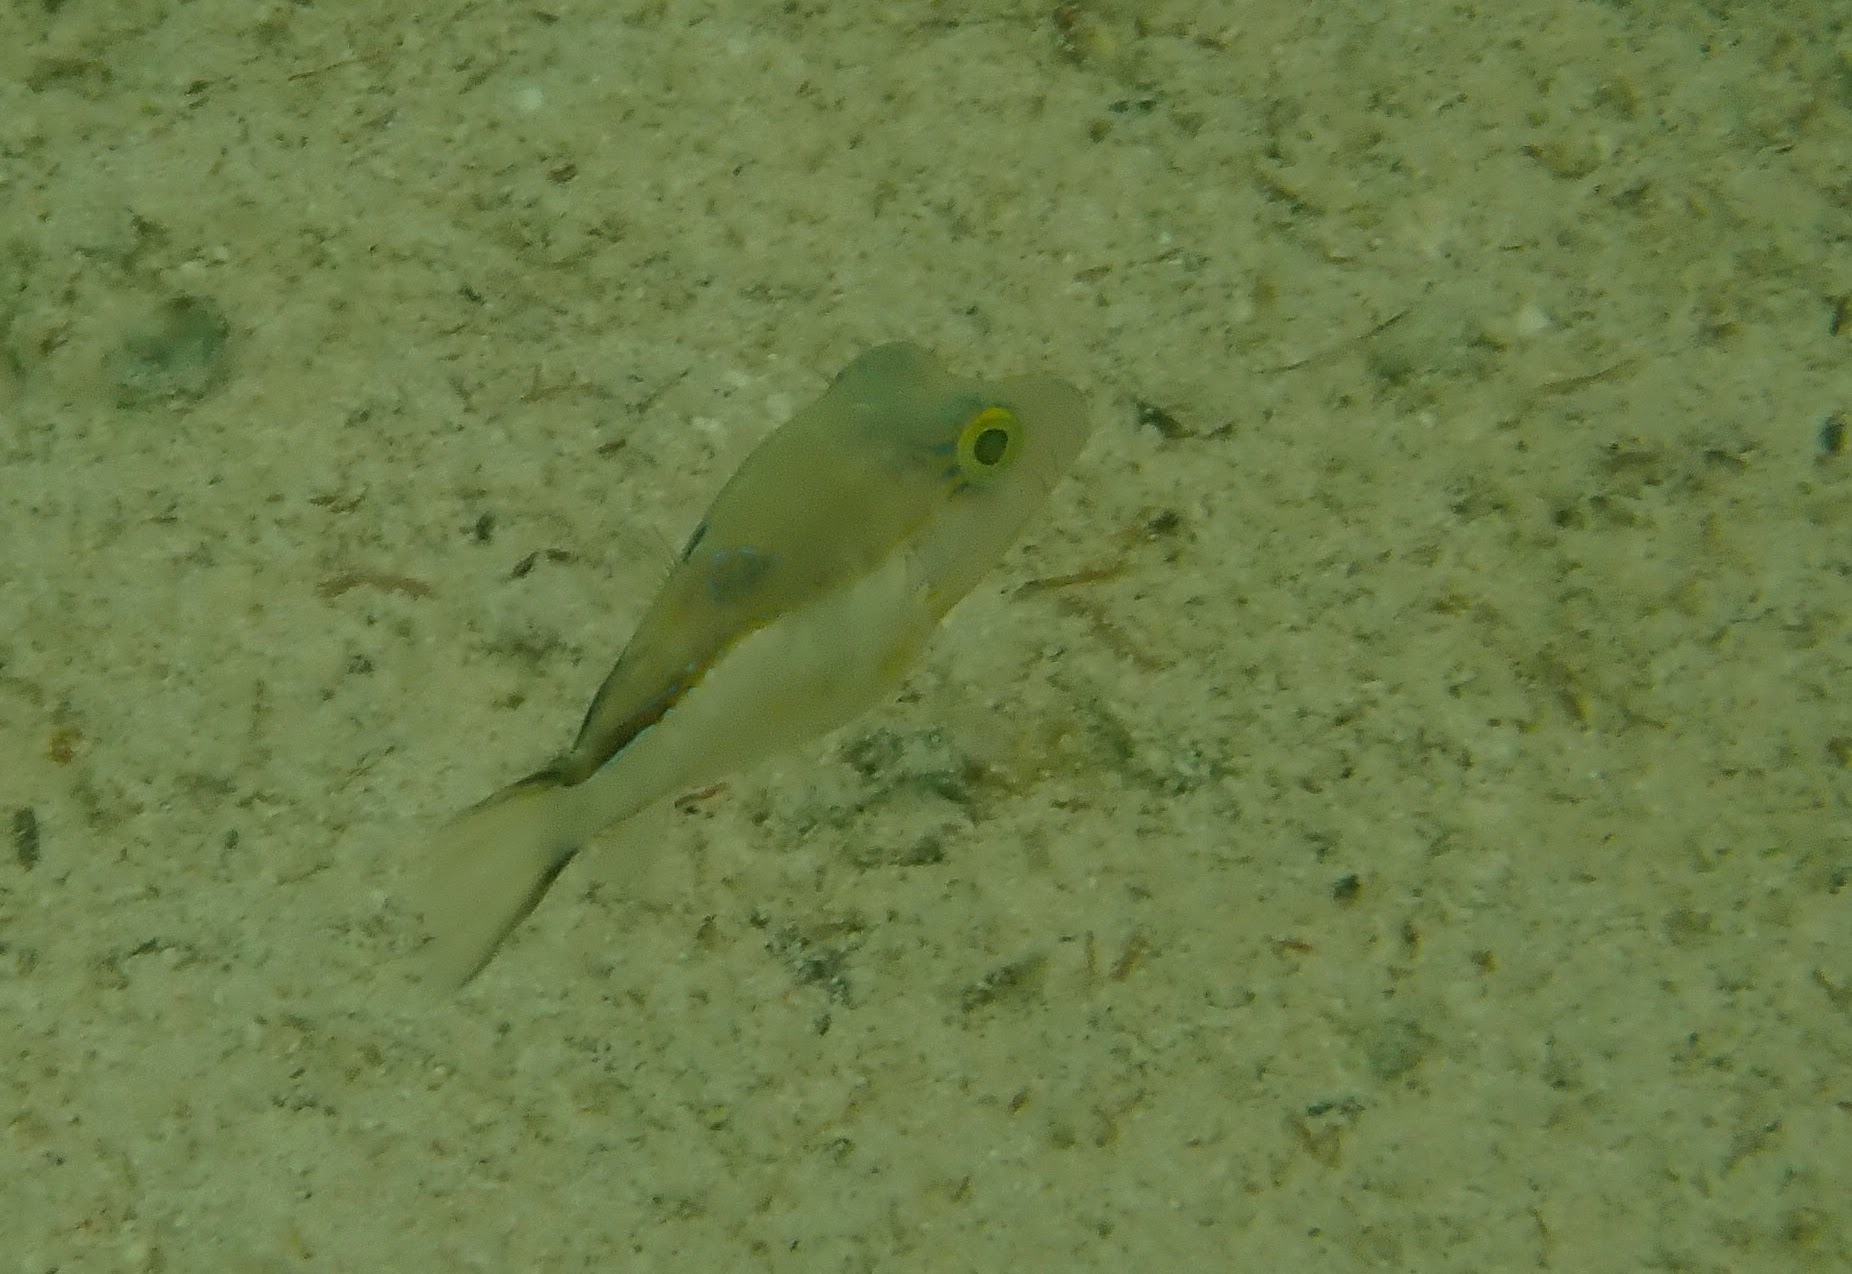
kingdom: Animalia
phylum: Chordata
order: Tetraodontiformes
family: Tetraodontidae
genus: Canthigaster
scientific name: Canthigaster rostrata
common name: Caribbean sharpnose-puffer
